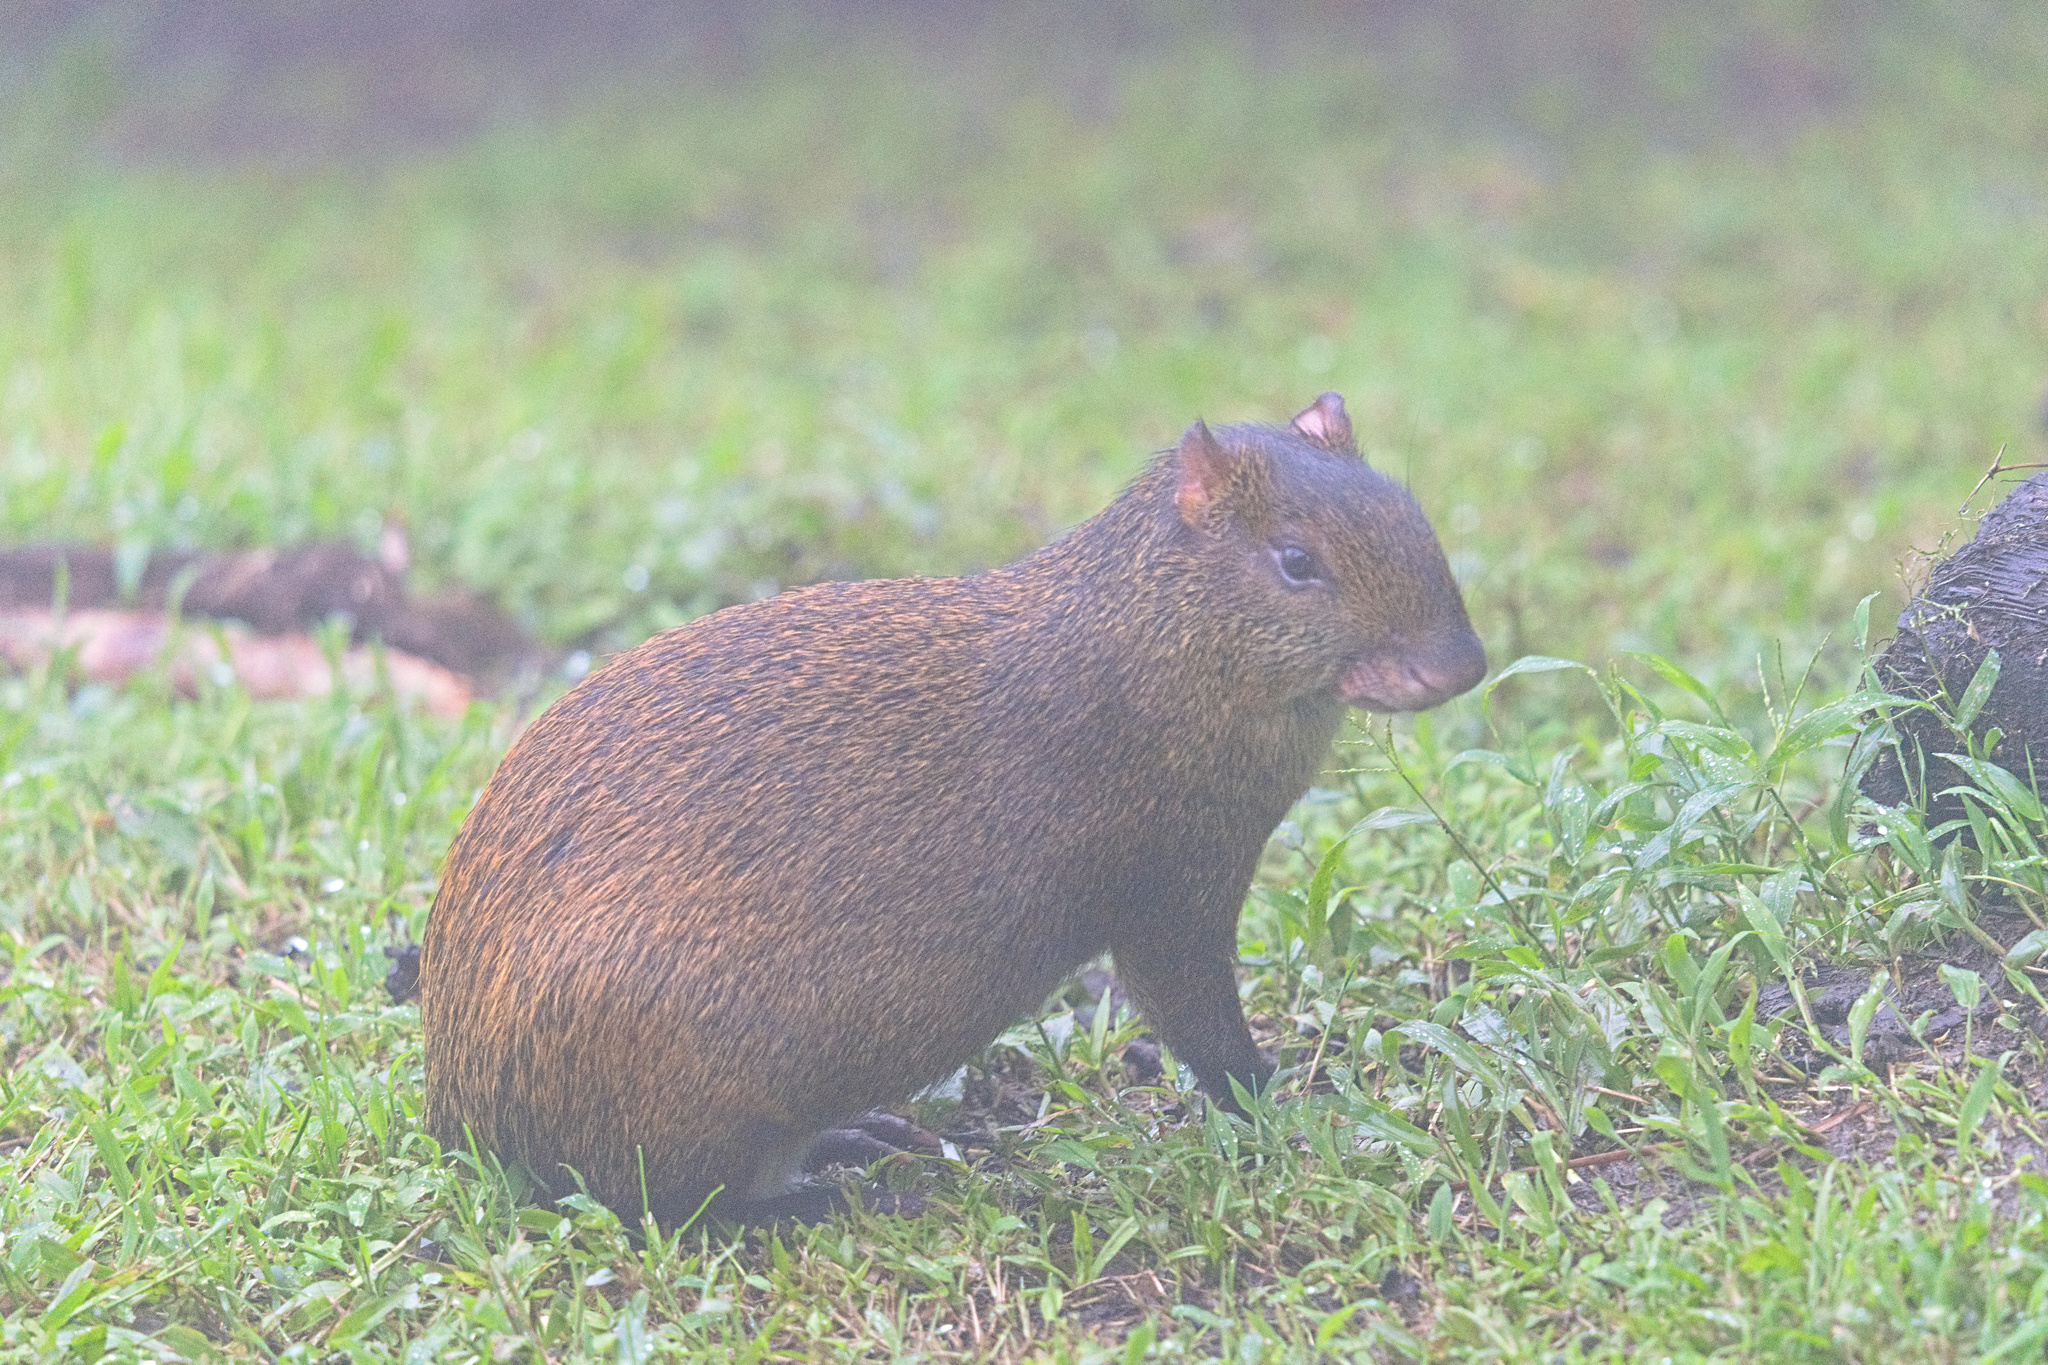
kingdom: Animalia
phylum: Chordata
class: Mammalia
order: Rodentia
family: Dasyproctidae
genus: Dasyprocta
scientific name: Dasyprocta punctata
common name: Central american agouti
